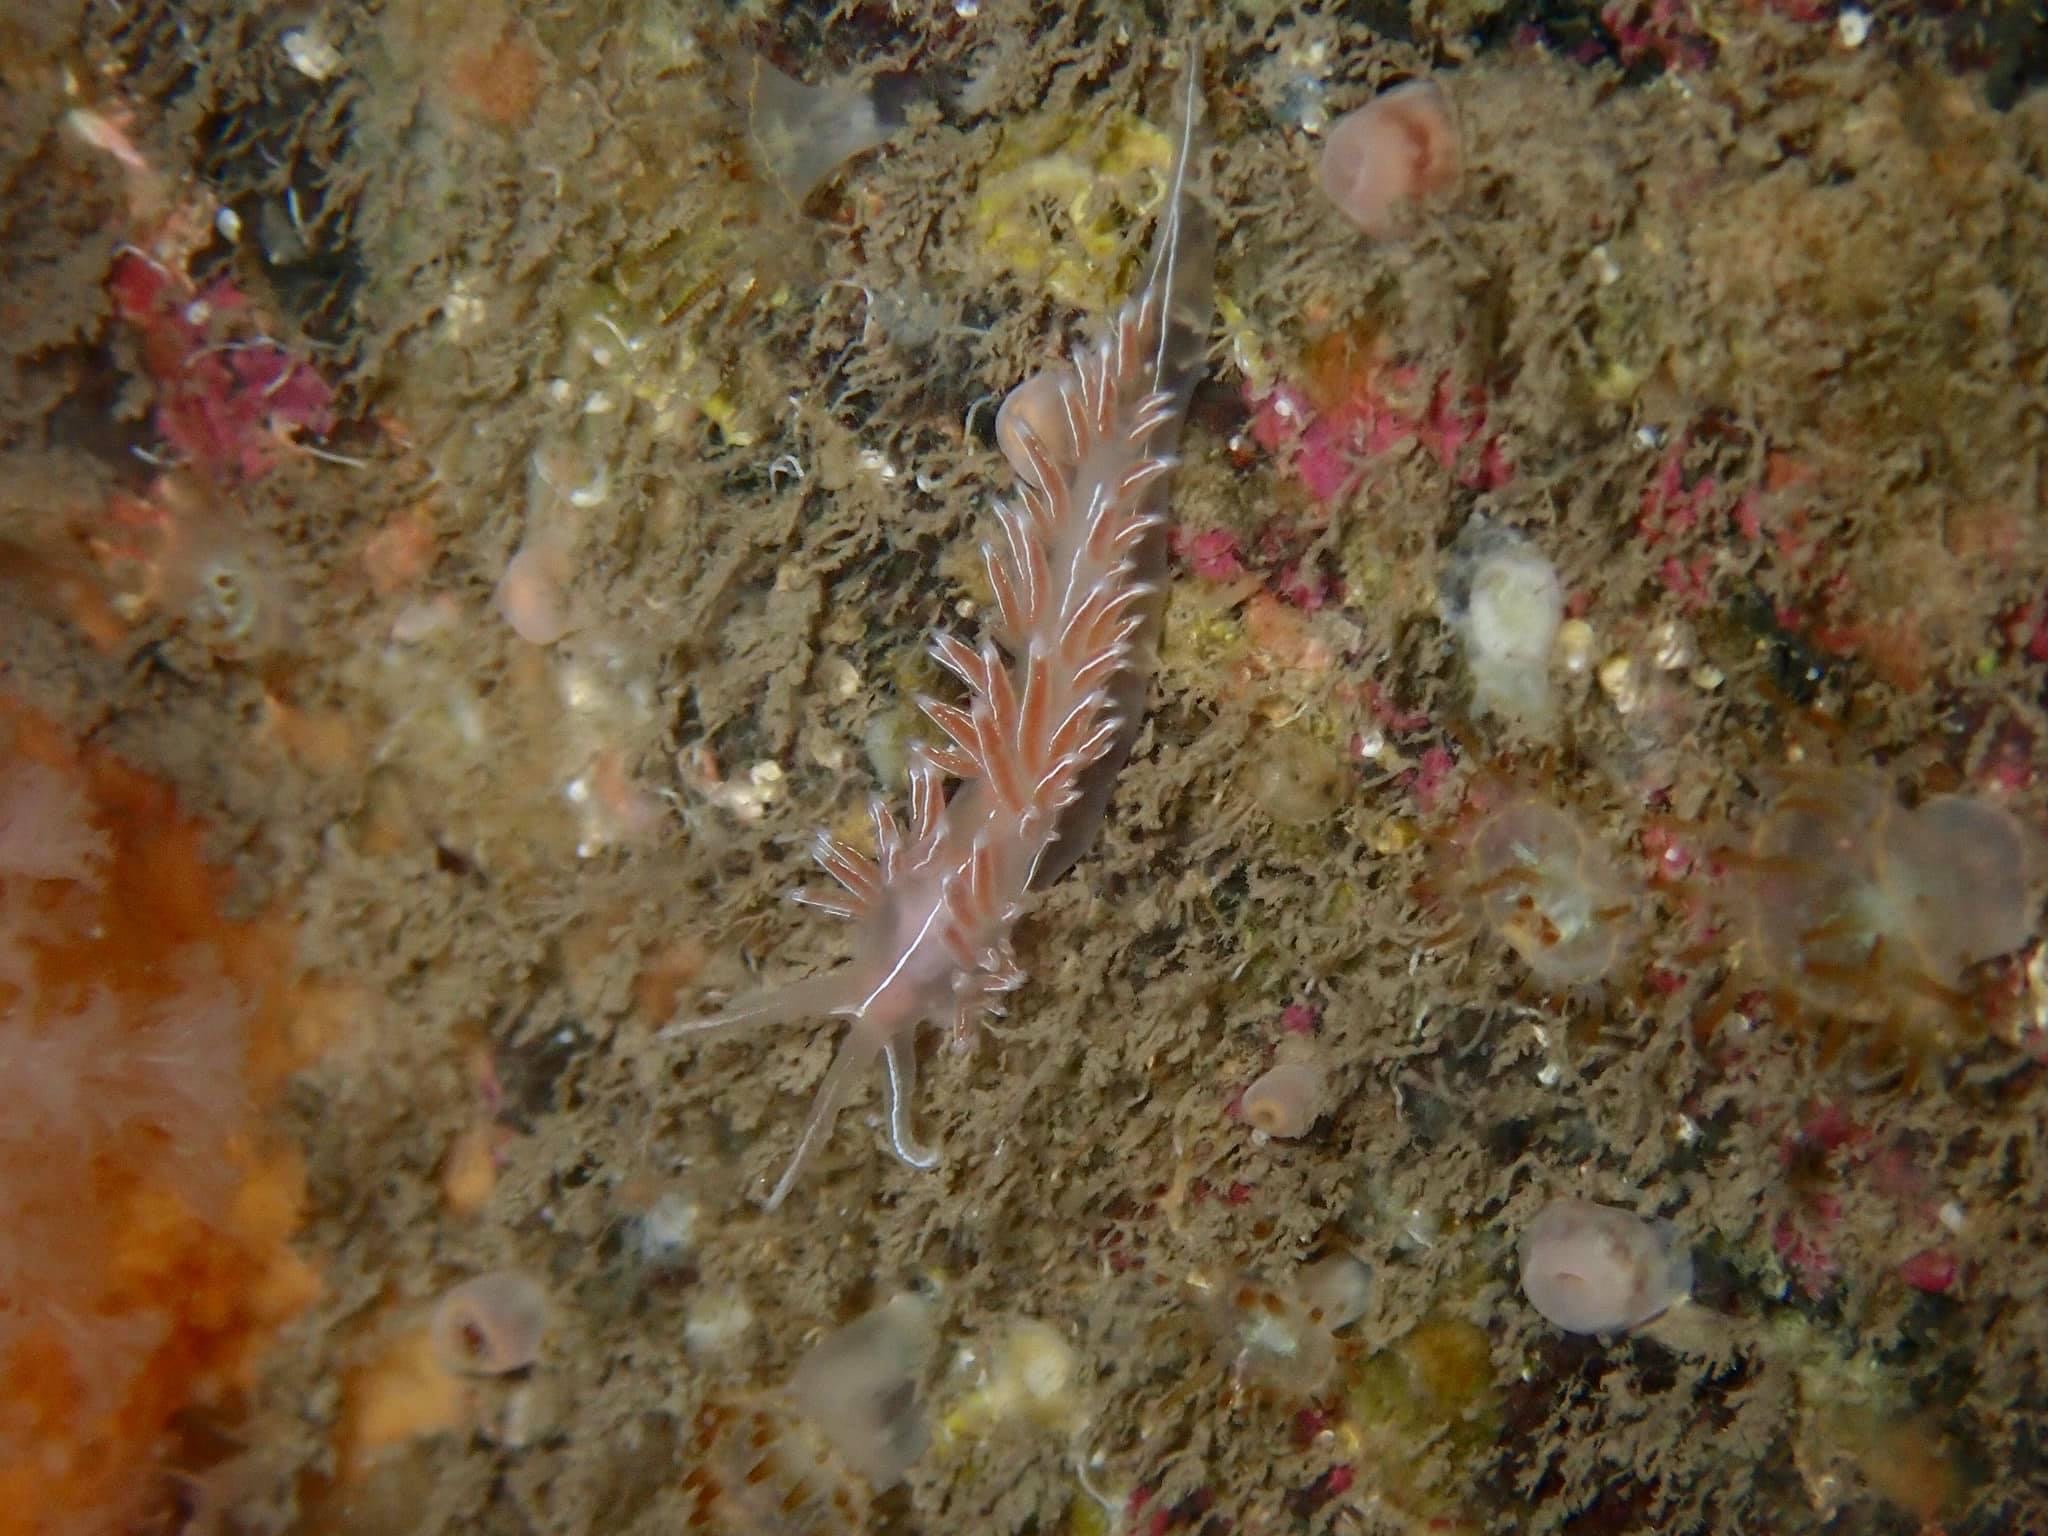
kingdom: Animalia
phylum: Mollusca
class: Gastropoda
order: Nudibranchia
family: Coryphellidae
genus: Coryphella
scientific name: Coryphella chriskaugei
